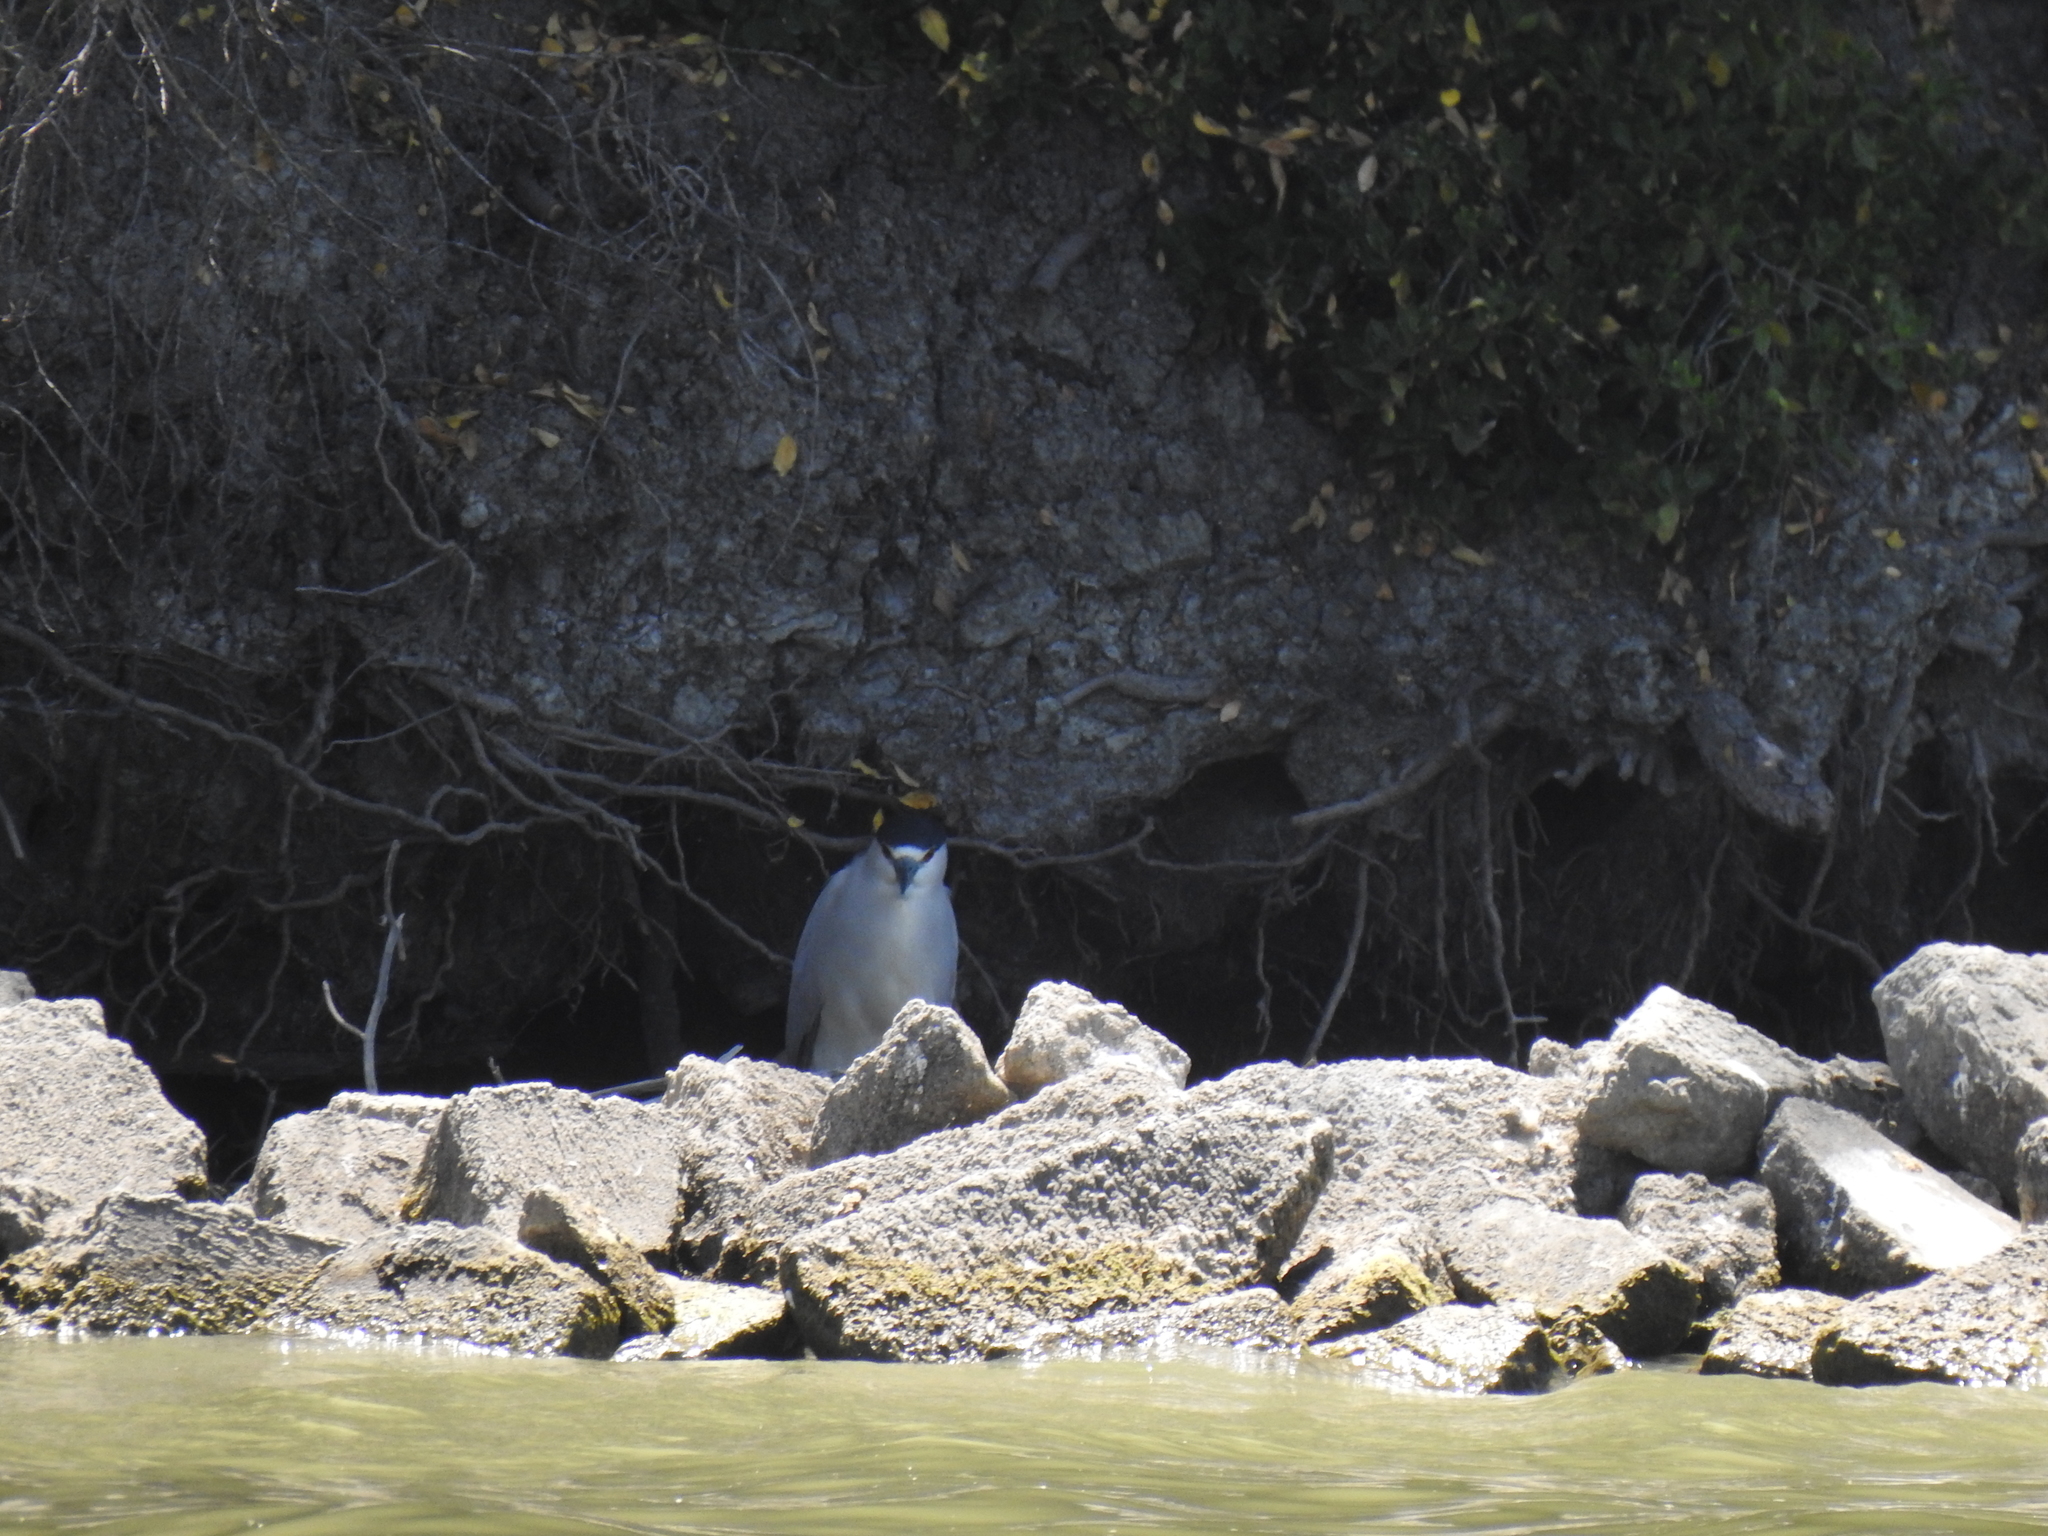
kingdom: Animalia
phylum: Chordata
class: Aves
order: Pelecaniformes
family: Ardeidae
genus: Nycticorax
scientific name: Nycticorax nycticorax
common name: Black-crowned night heron
